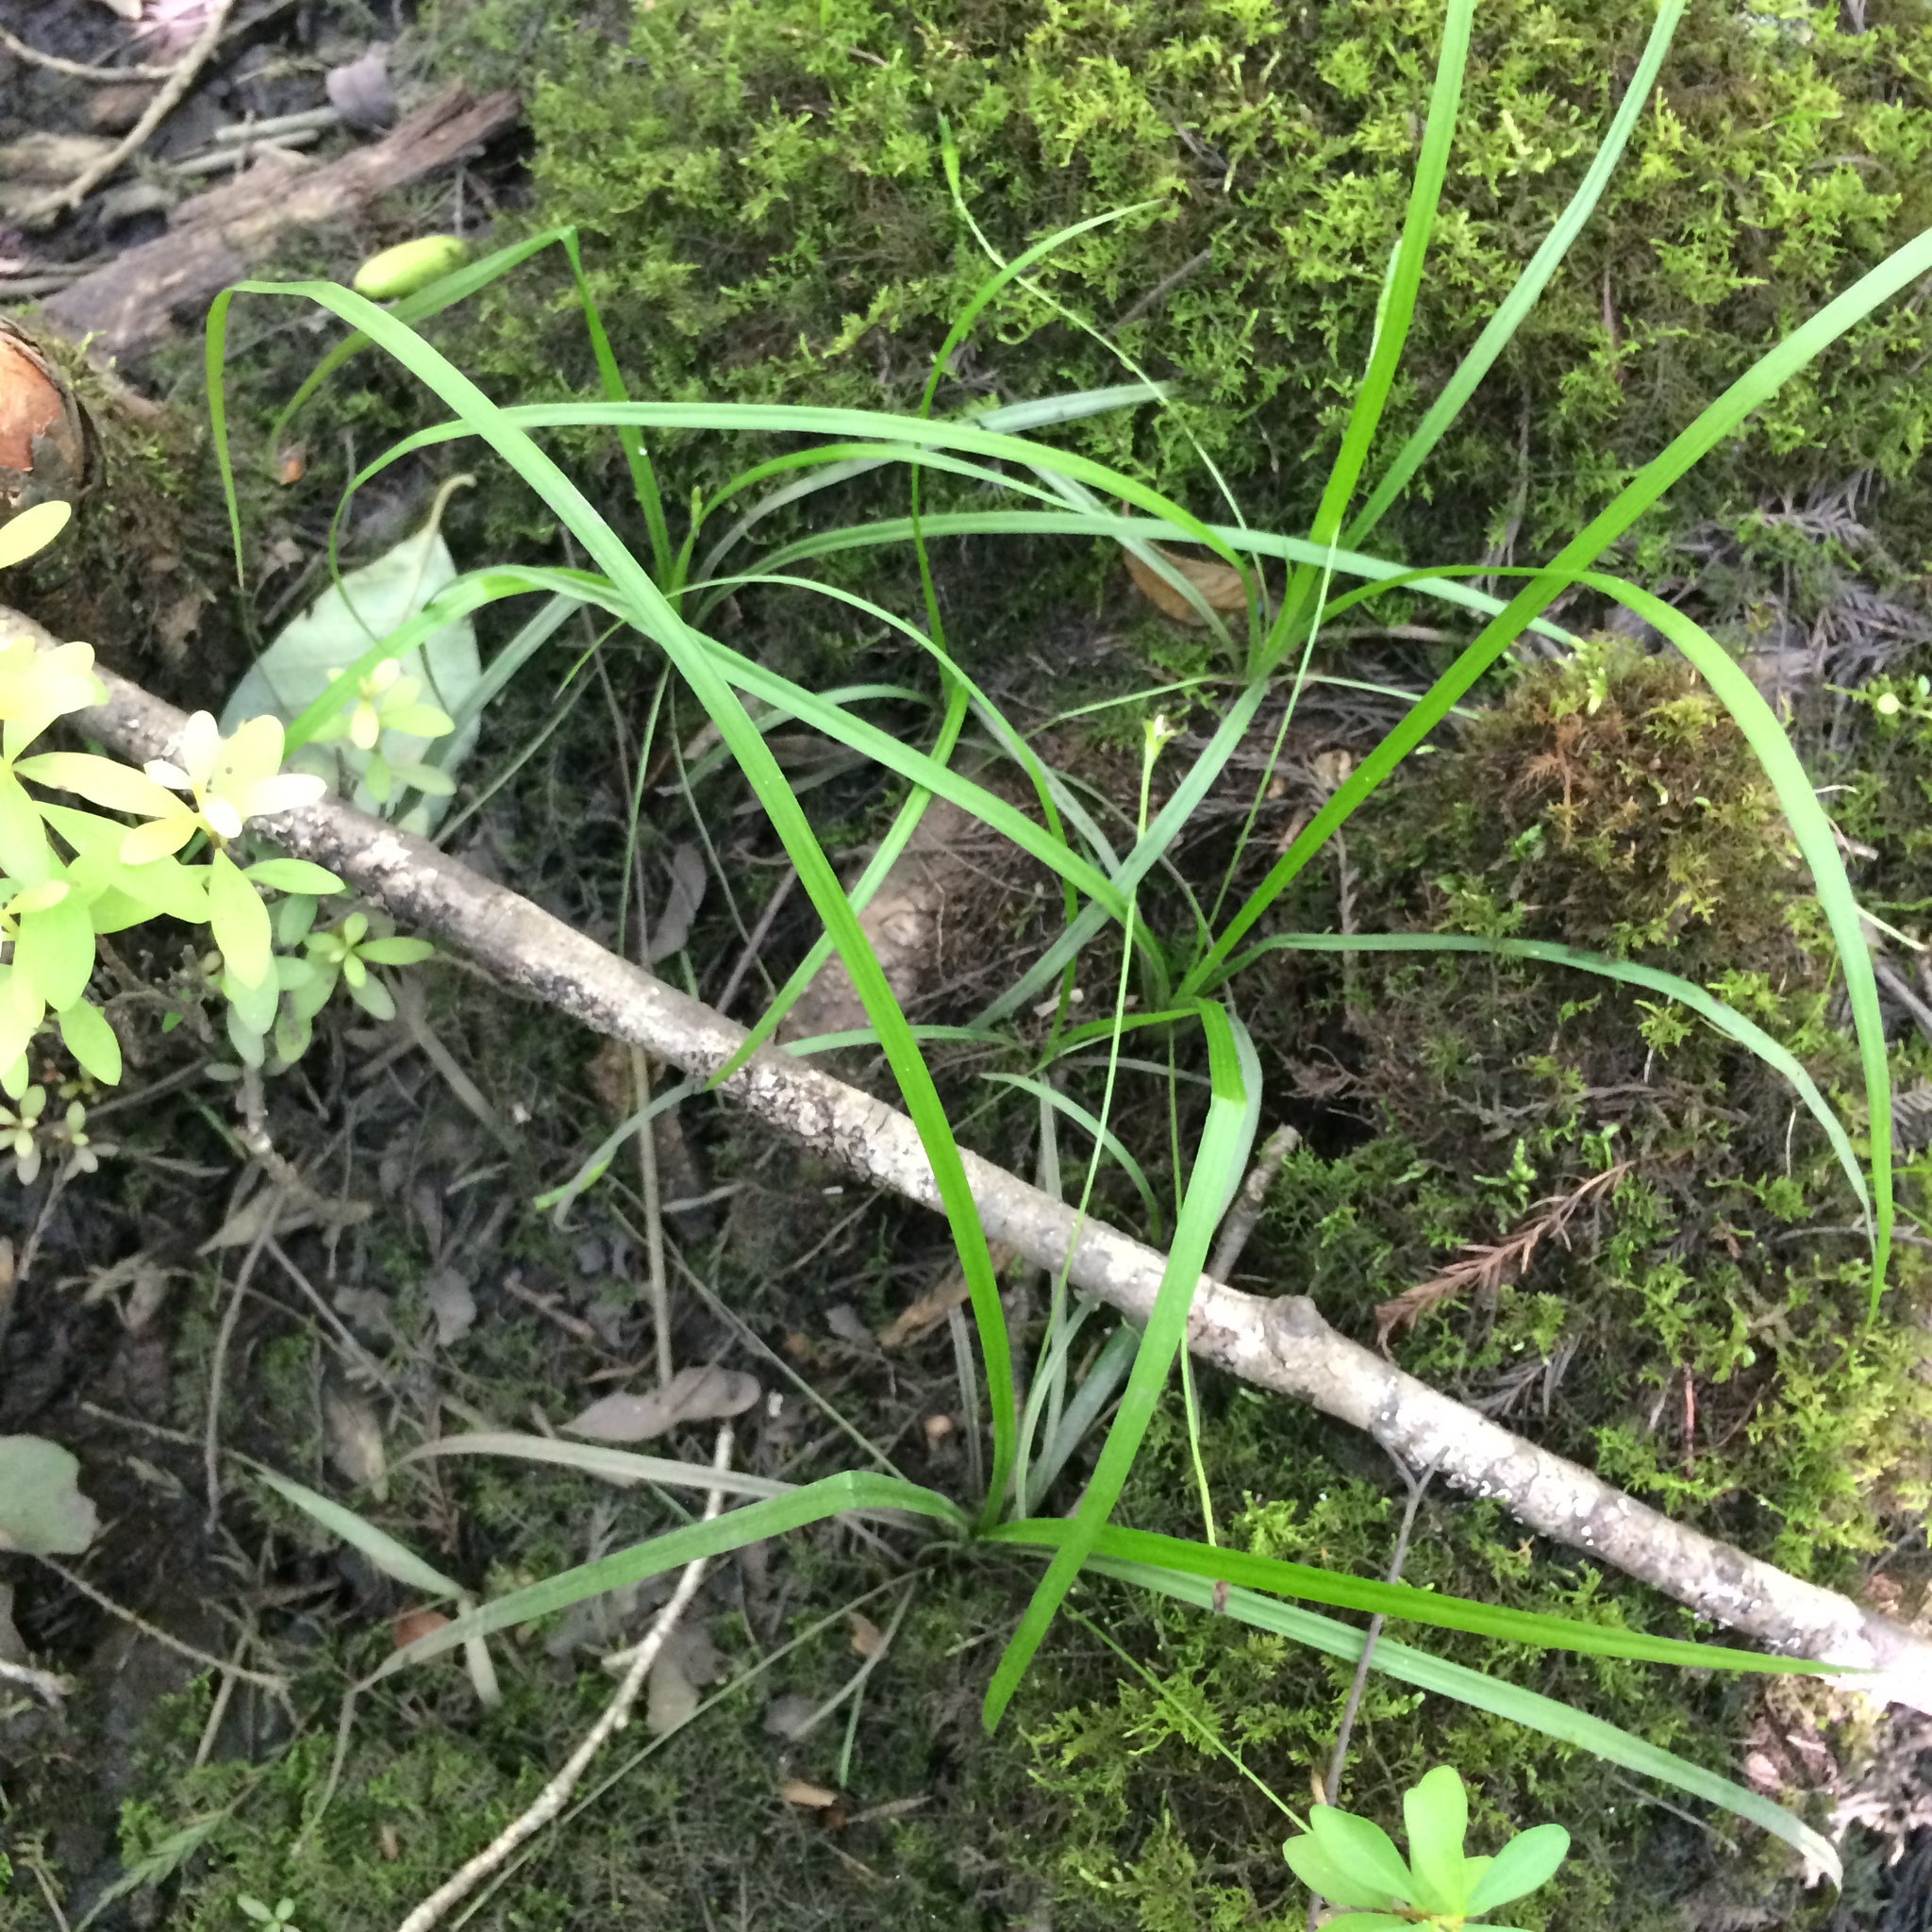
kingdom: Plantae
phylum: Tracheophyta
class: Liliopsida
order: Asparagales
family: Hypoxidaceae
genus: Hypoxis
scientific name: Hypoxis curtissii
